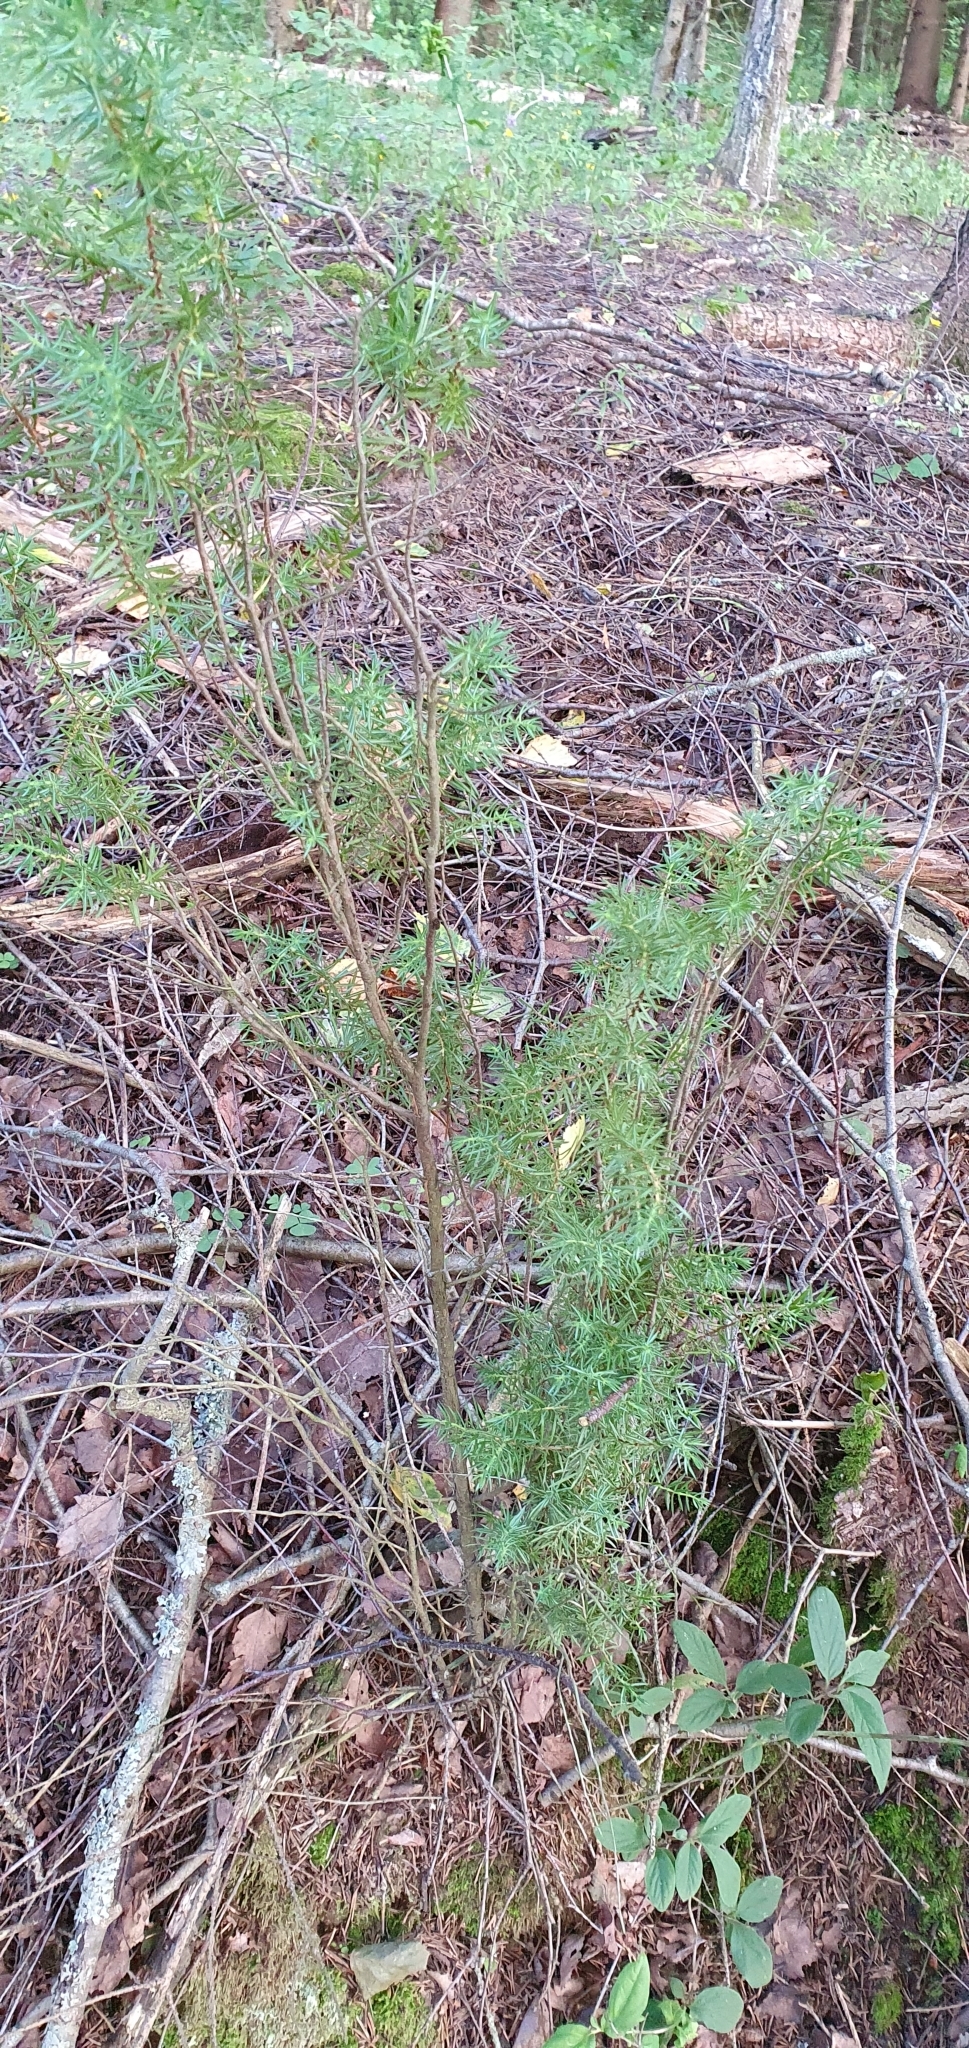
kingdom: Plantae
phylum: Tracheophyta
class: Pinopsida
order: Pinales
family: Cupressaceae
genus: Juniperus
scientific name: Juniperus communis
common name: Common juniper
